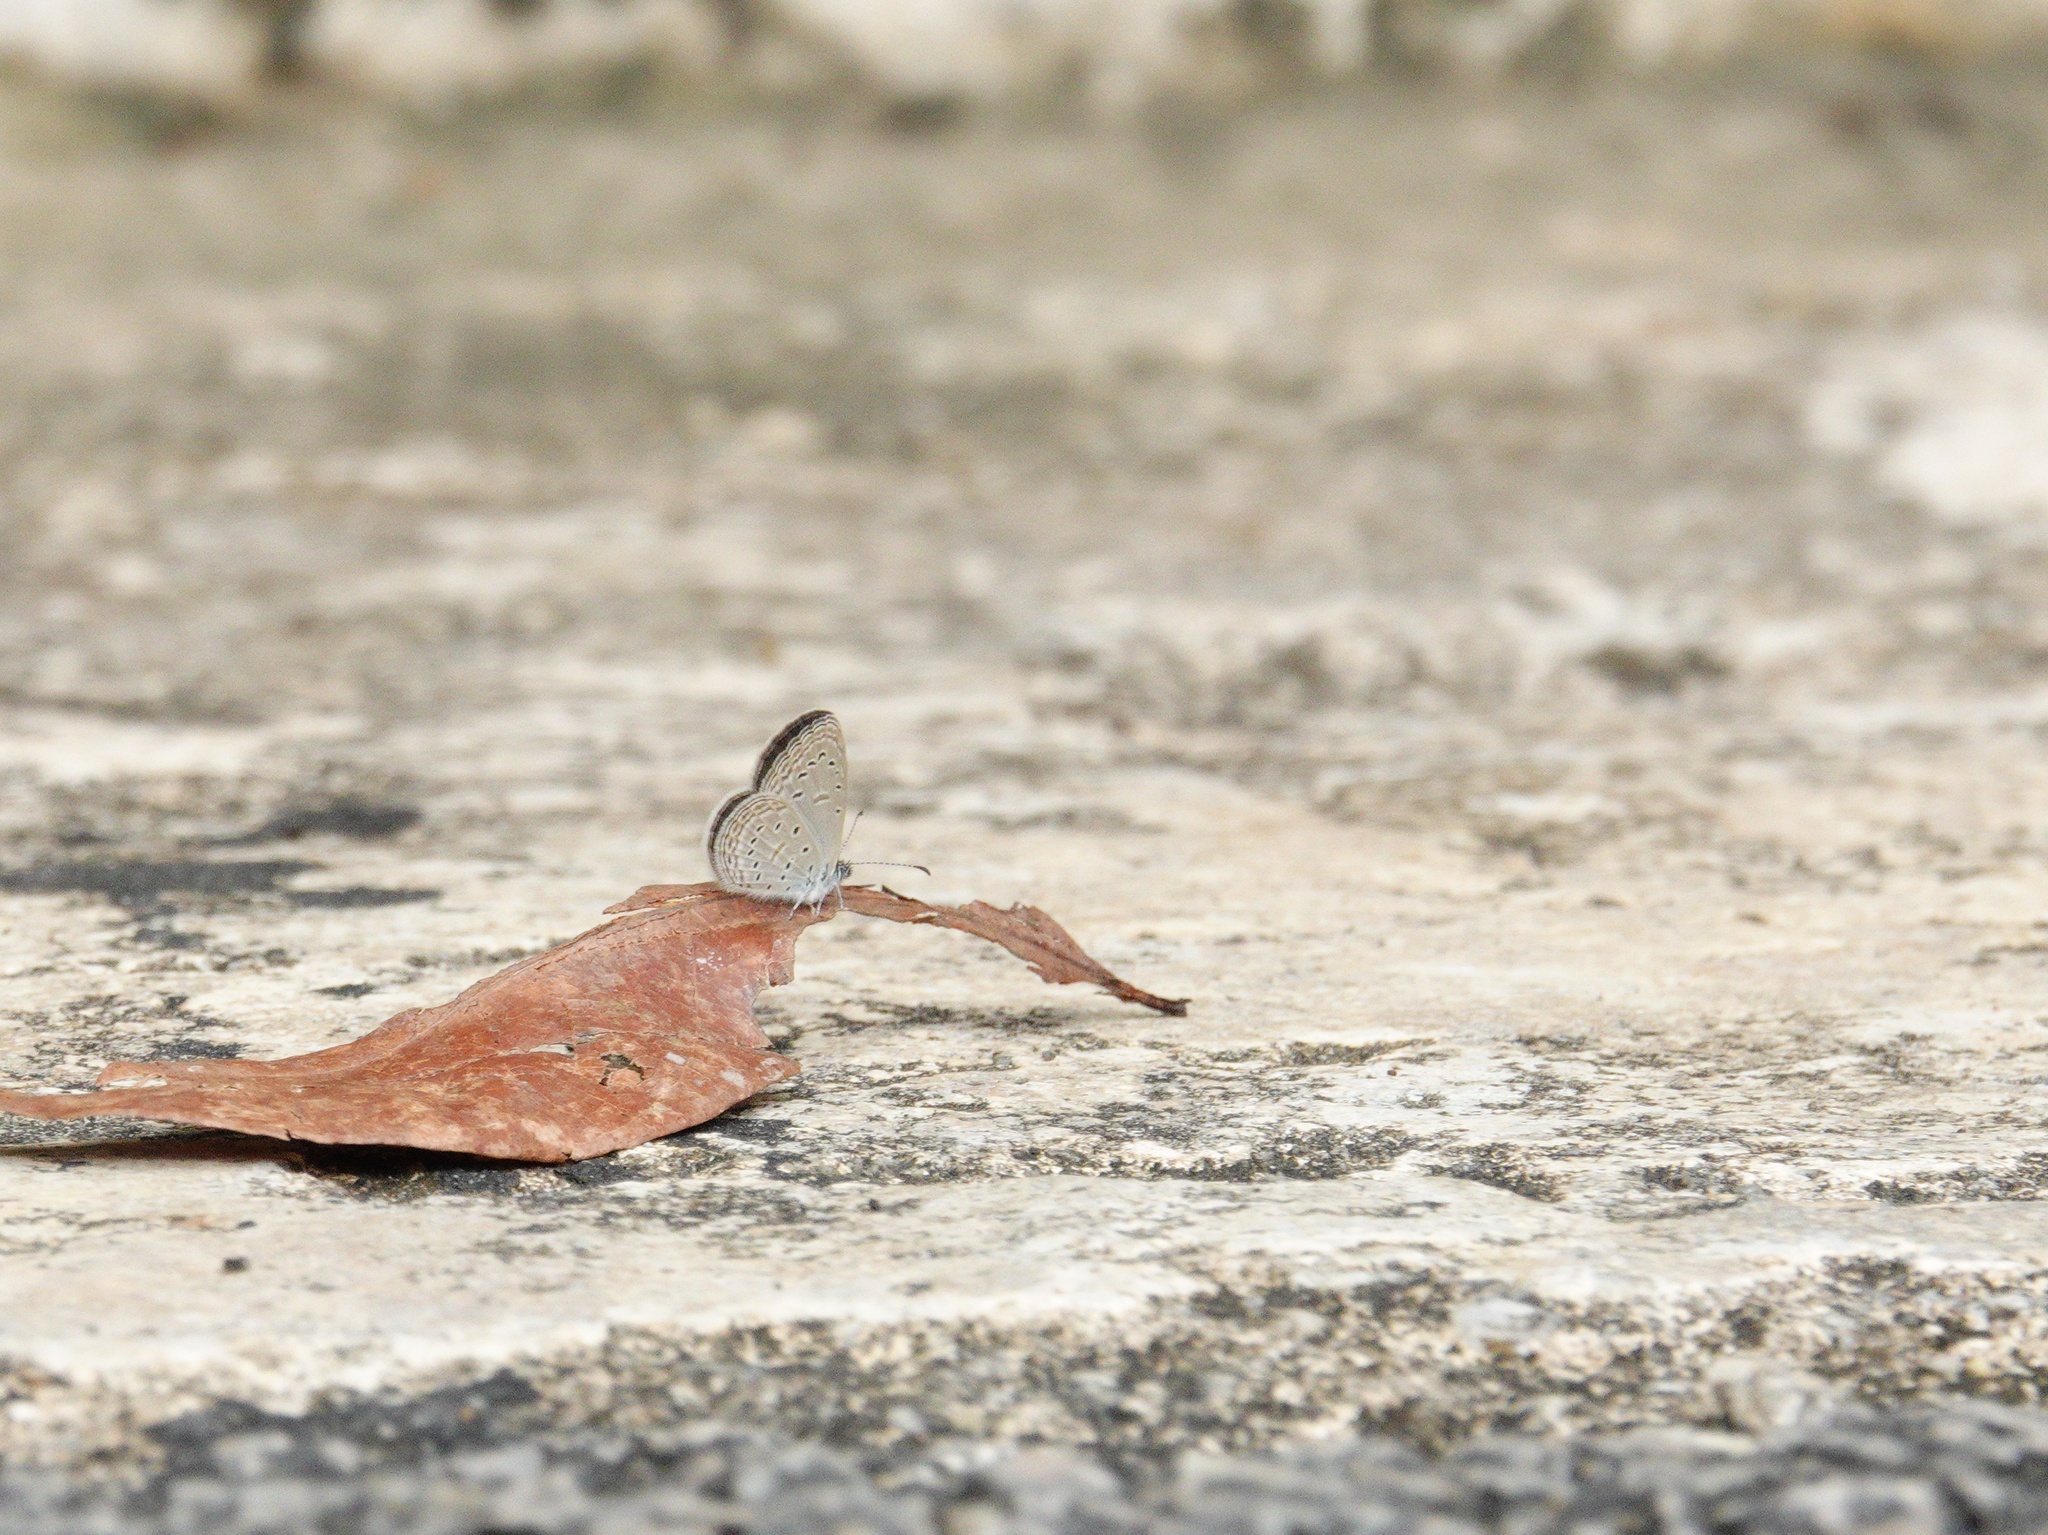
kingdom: Animalia
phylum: Arthropoda
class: Insecta
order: Lepidoptera
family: Lycaenidae
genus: Zizula
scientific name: Zizula hylax
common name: Gaika blue
